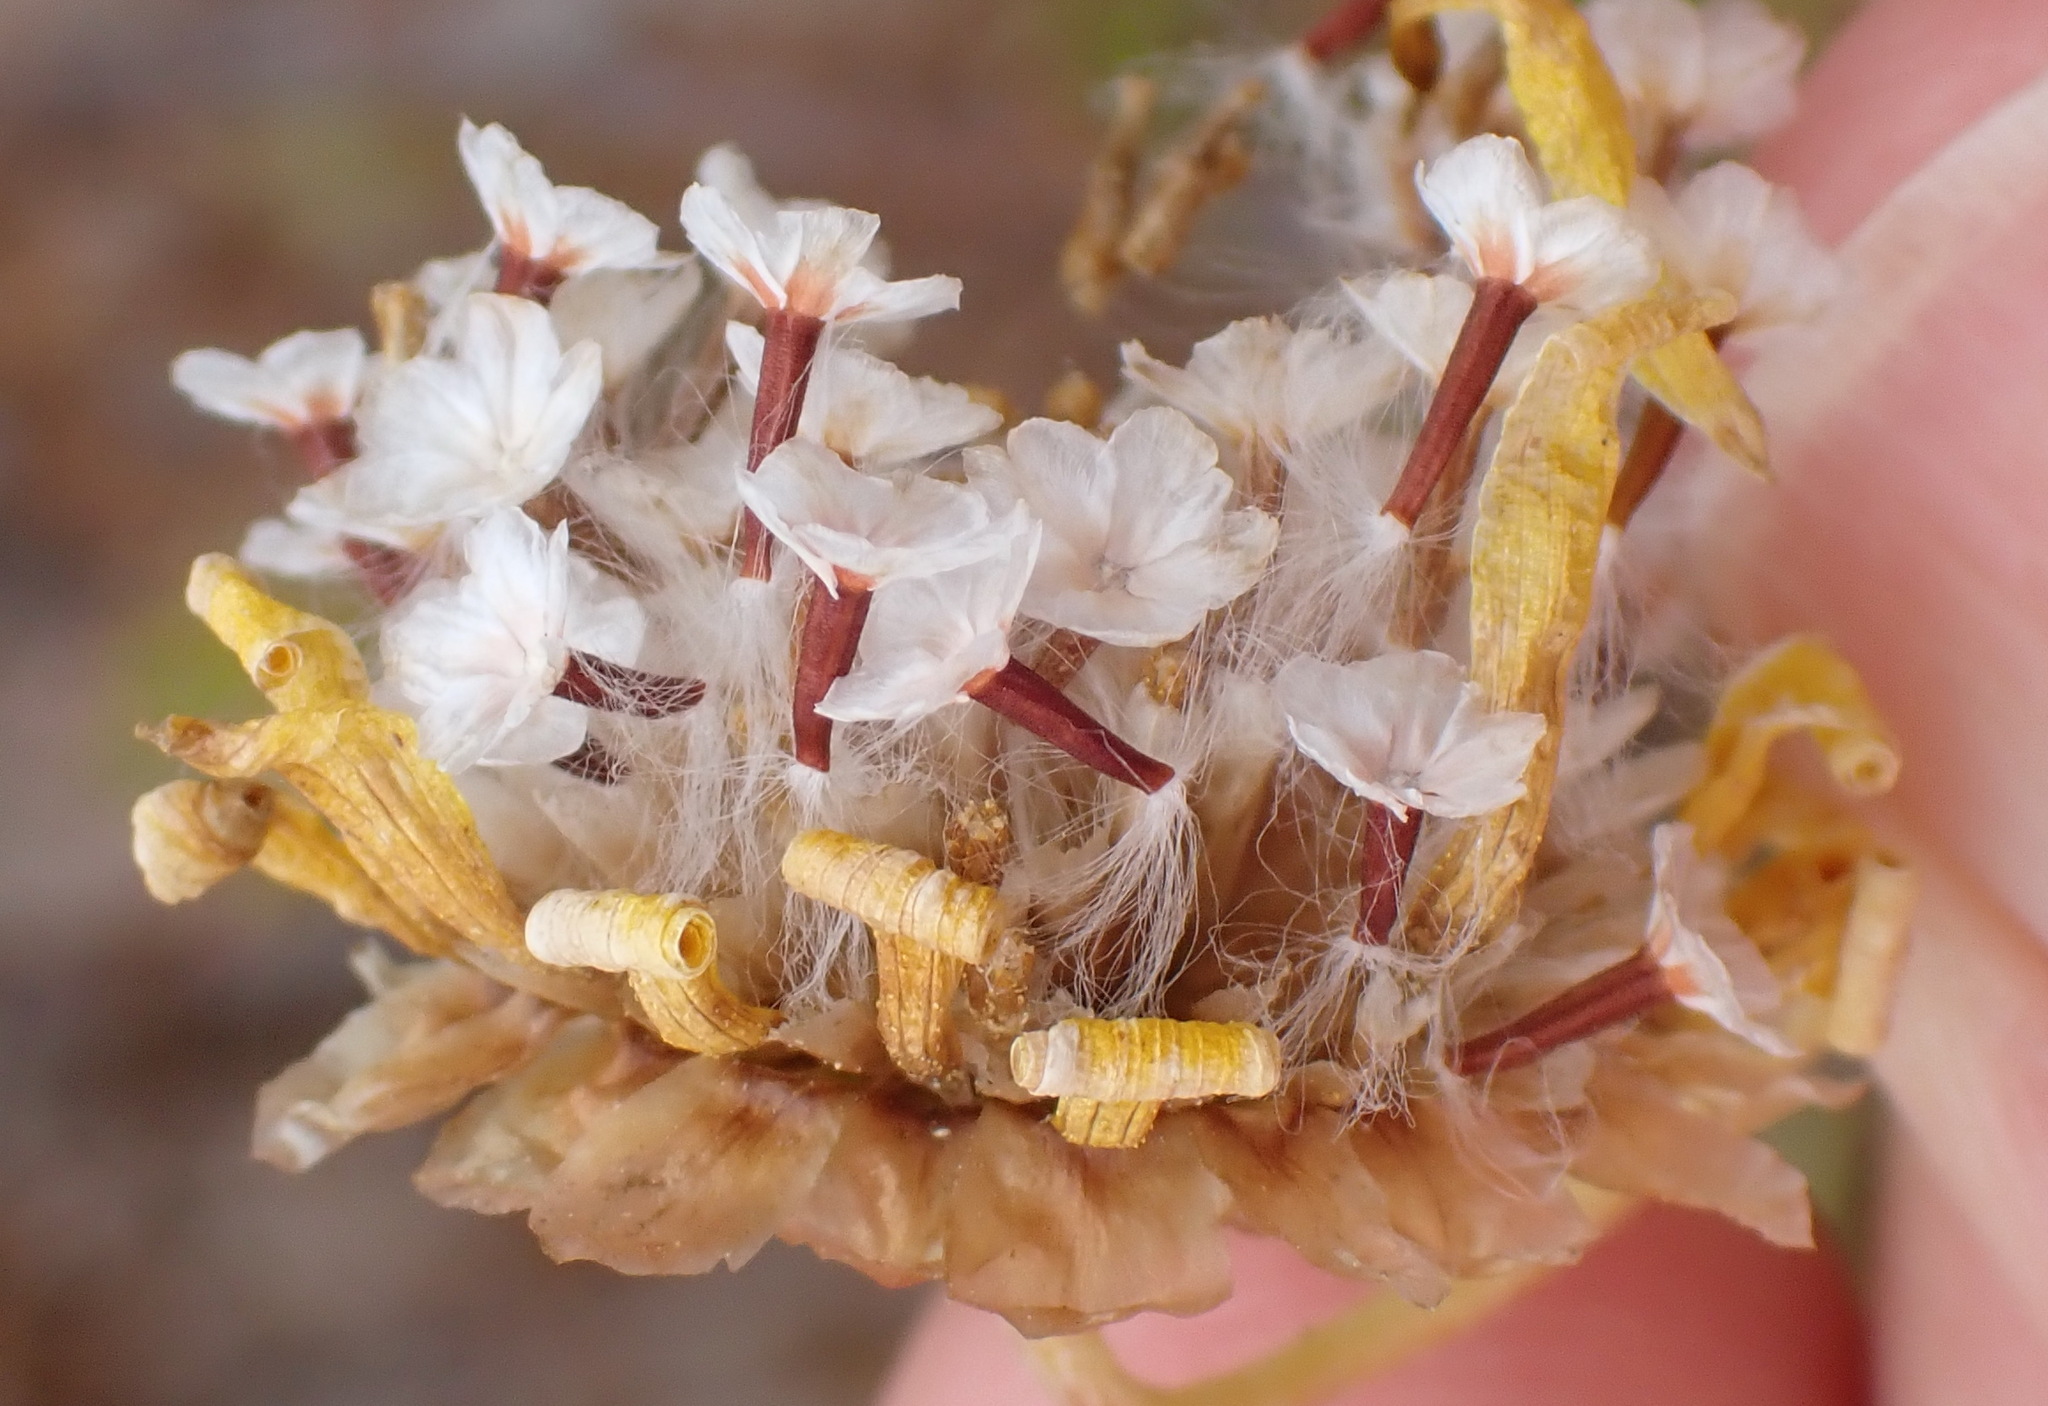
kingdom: Plantae
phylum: Tracheophyta
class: Magnoliopsida
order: Asterales
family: Asteraceae
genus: Ursinia
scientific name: Ursinia scariosa
